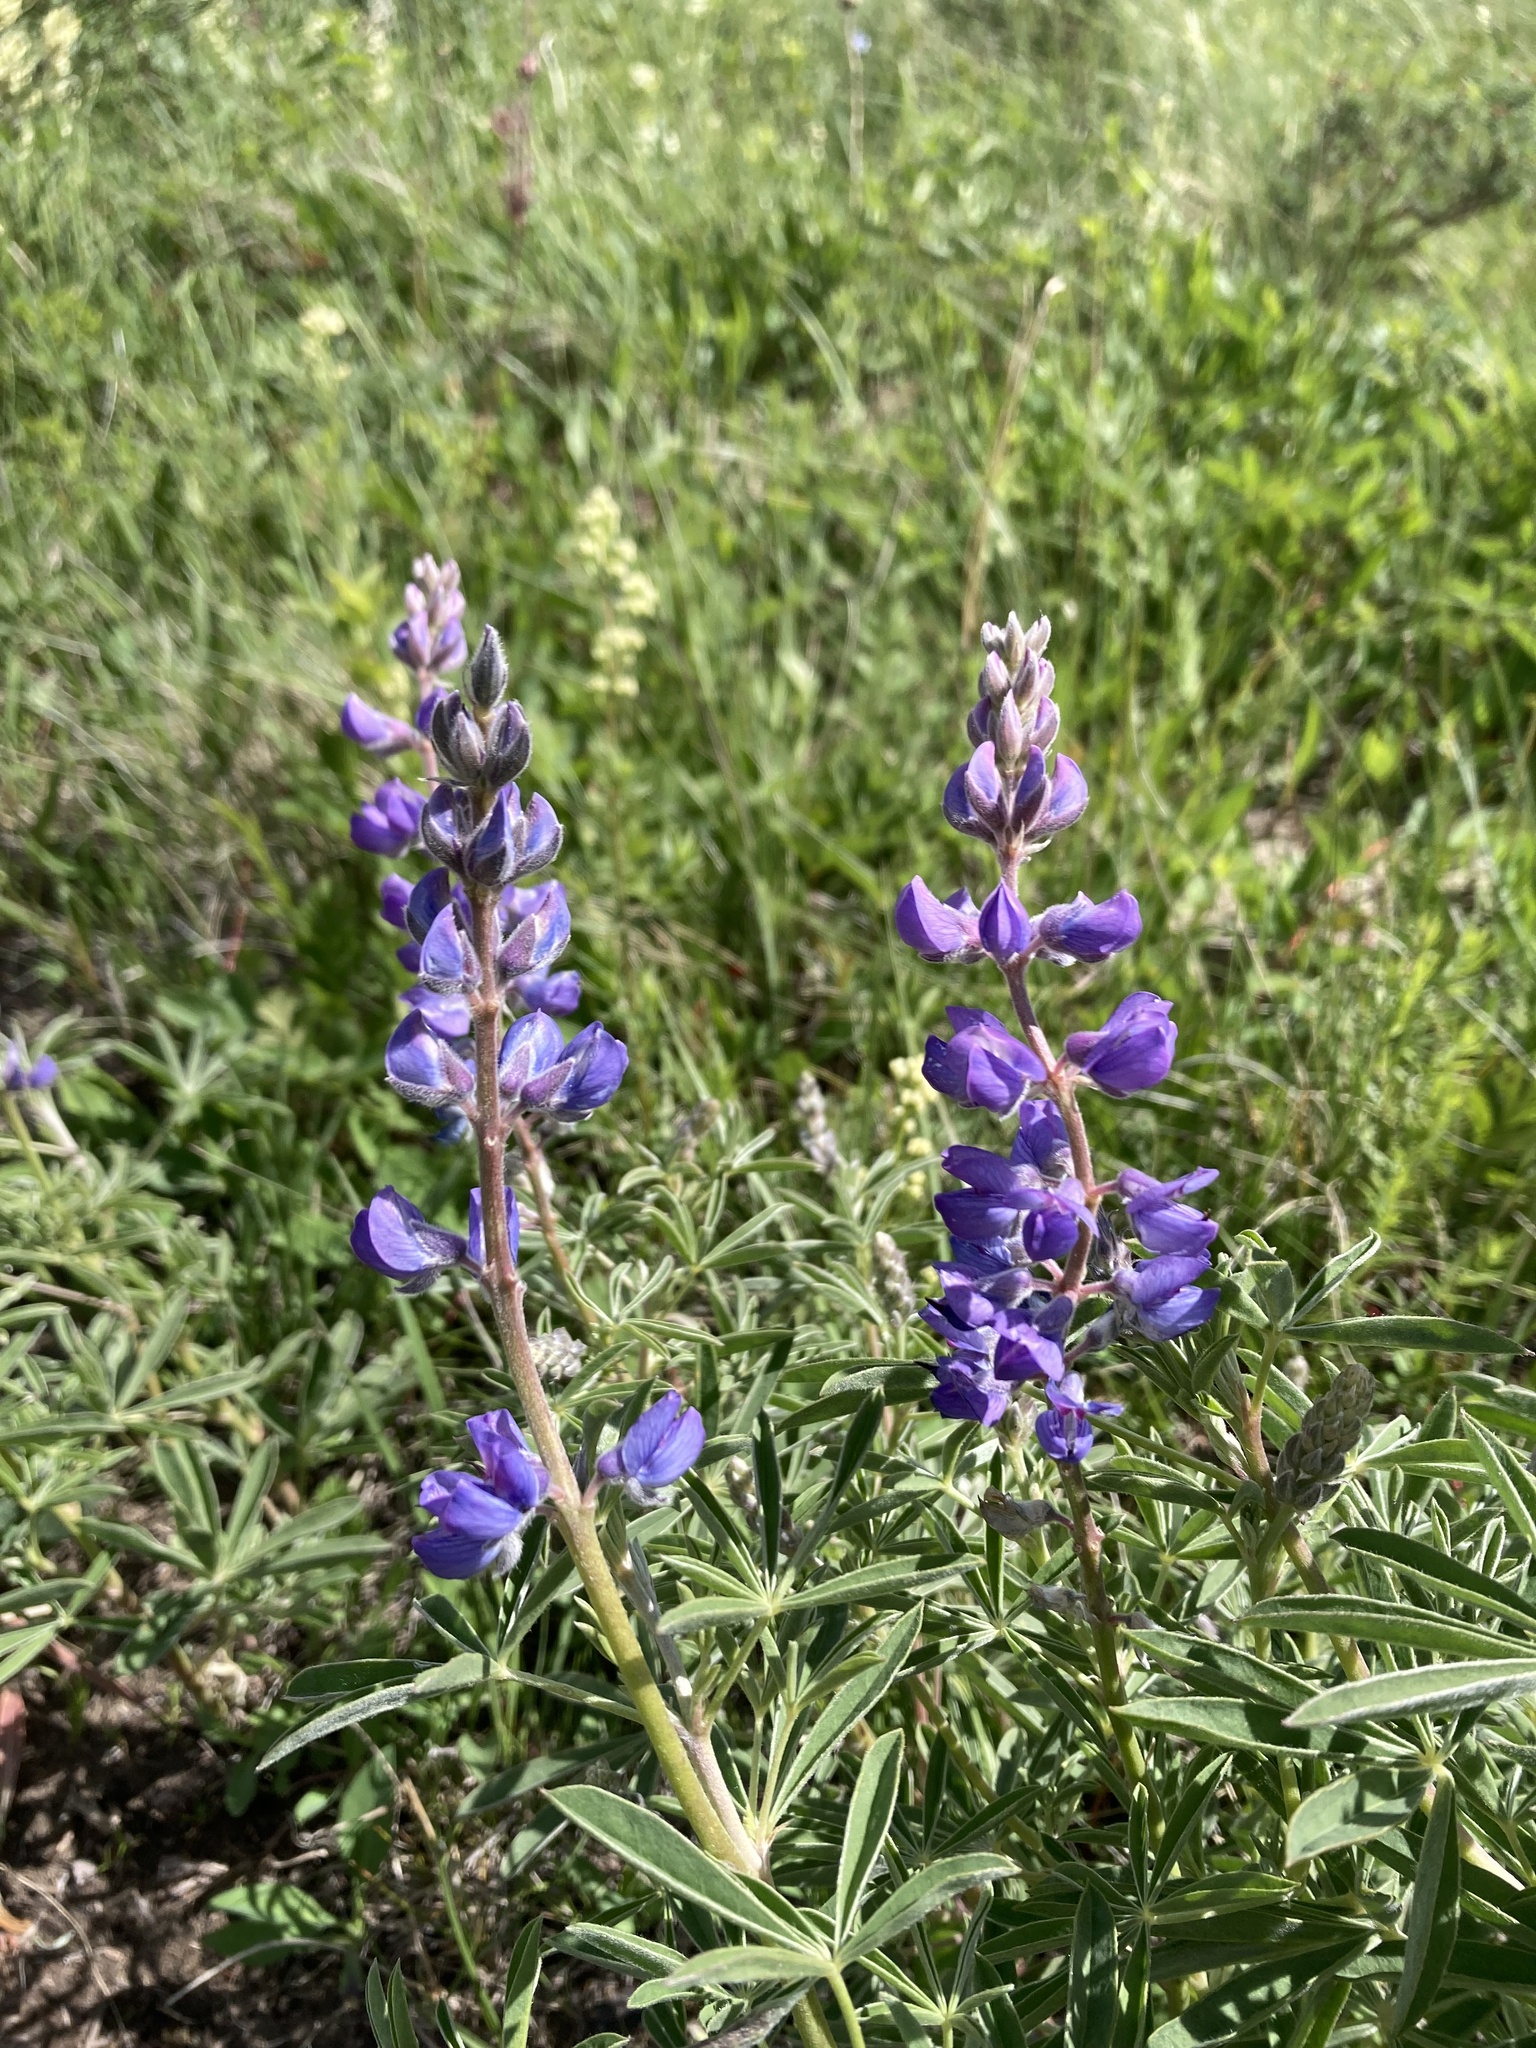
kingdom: Plantae
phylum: Tracheophyta
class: Magnoliopsida
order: Fabales
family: Fabaceae
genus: Lupinus
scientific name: Lupinus argenteus
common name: Silvery lupine
